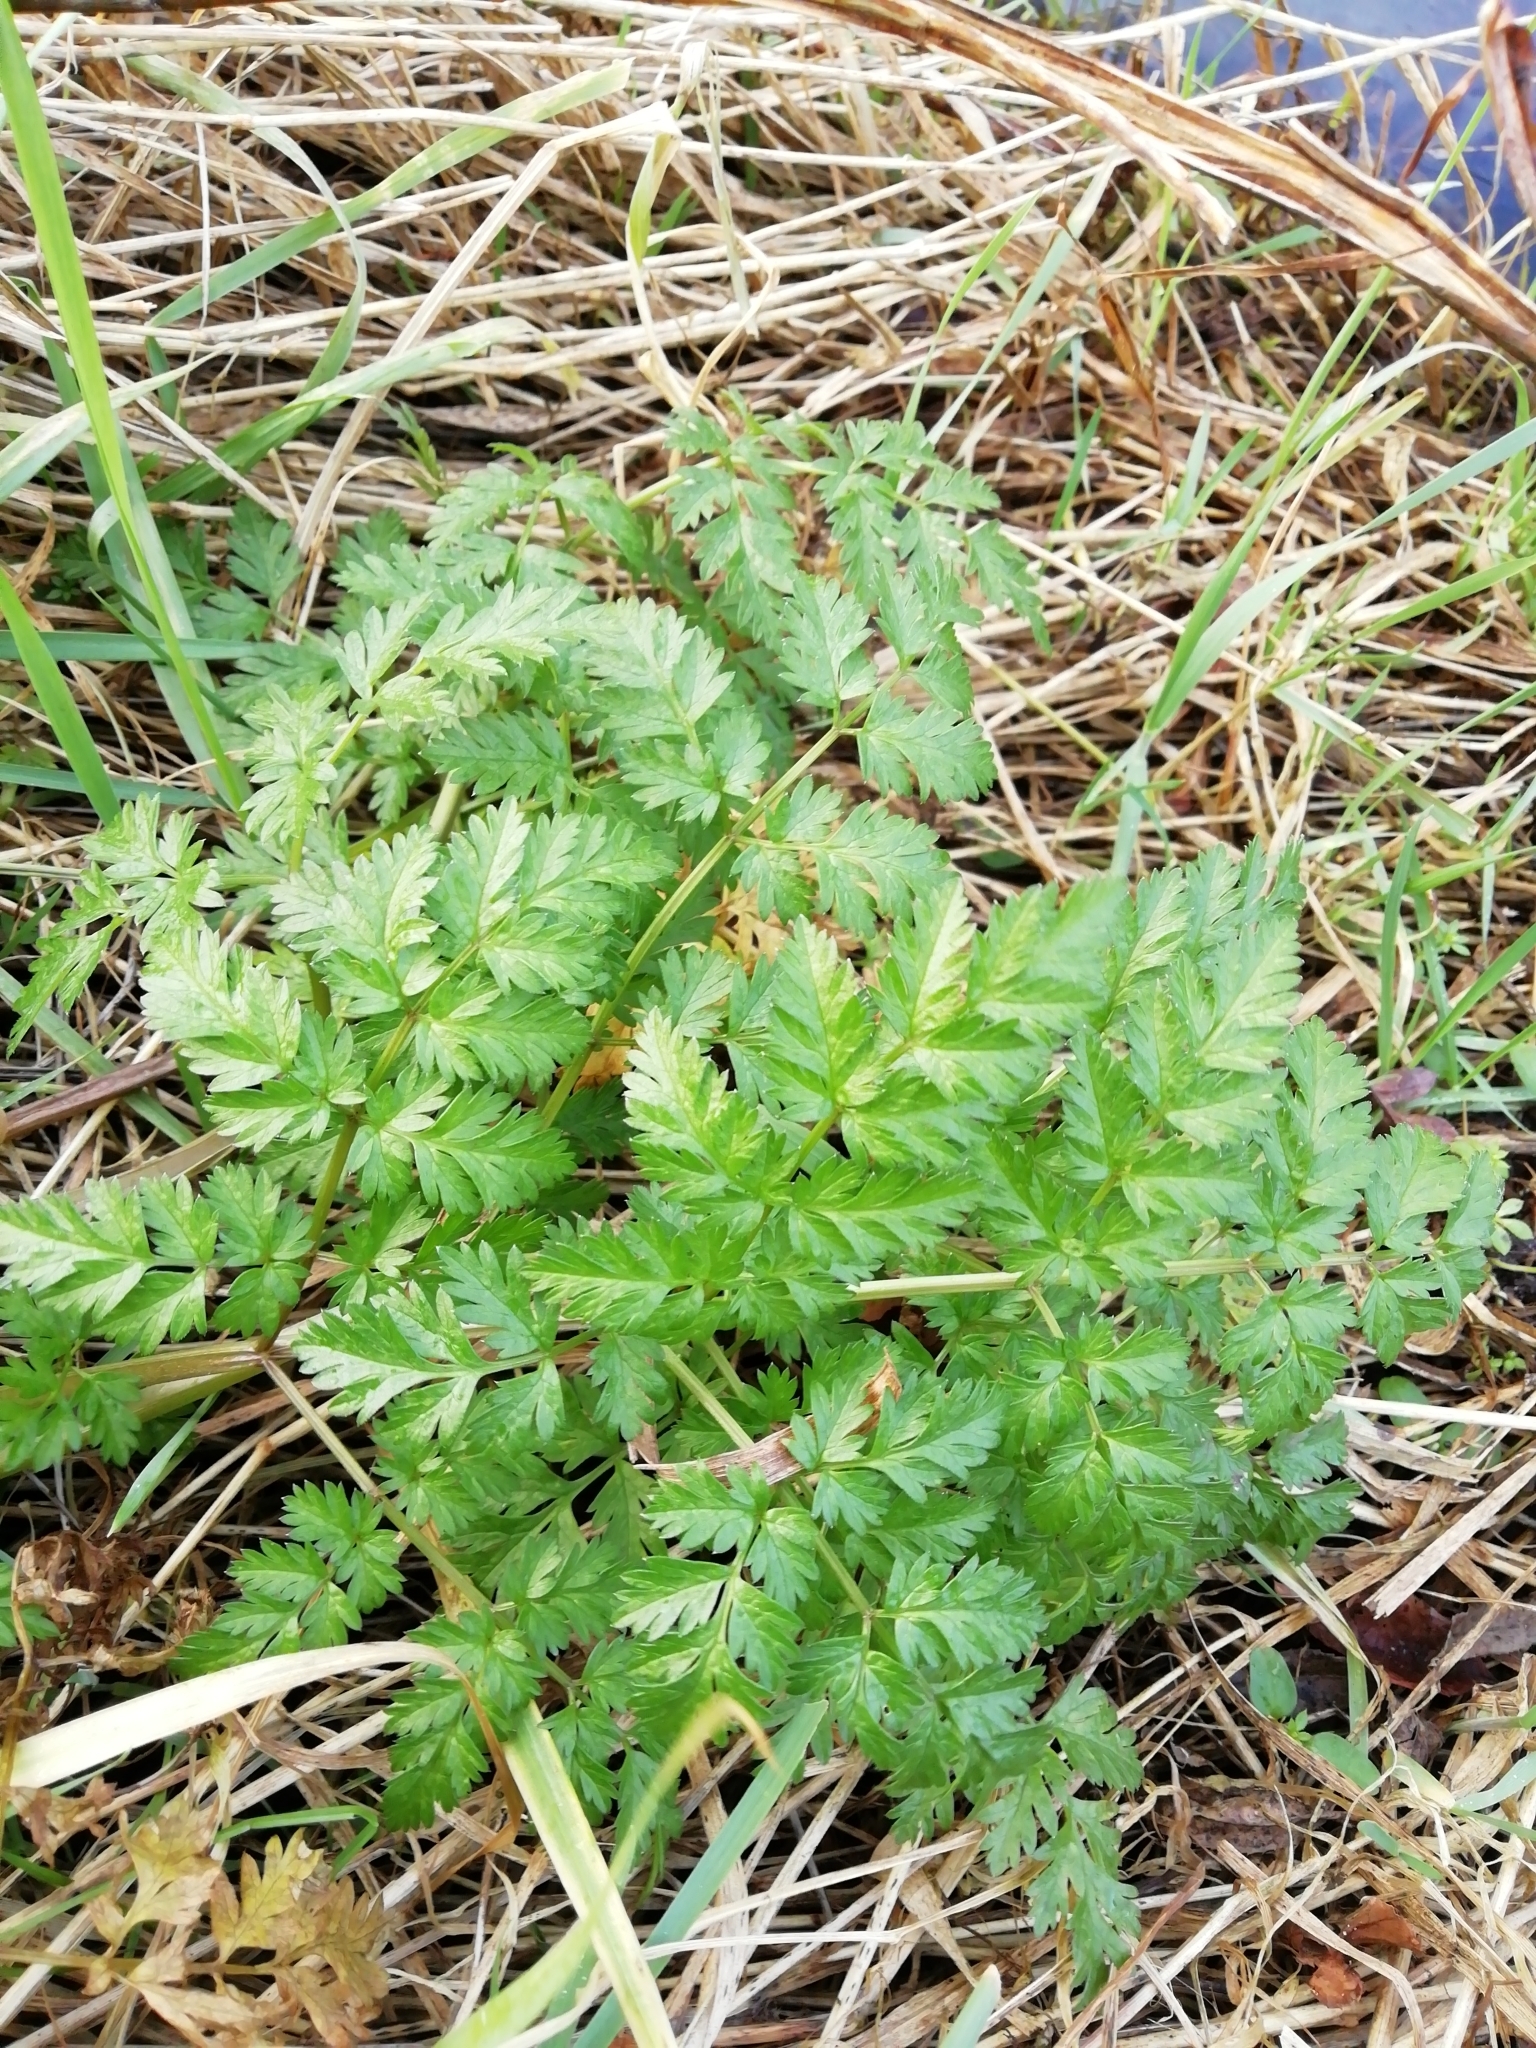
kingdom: Plantae
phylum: Tracheophyta
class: Magnoliopsida
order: Apiales
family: Apiaceae
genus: Anthriscus
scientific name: Anthriscus sylvestris
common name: Cow parsley
